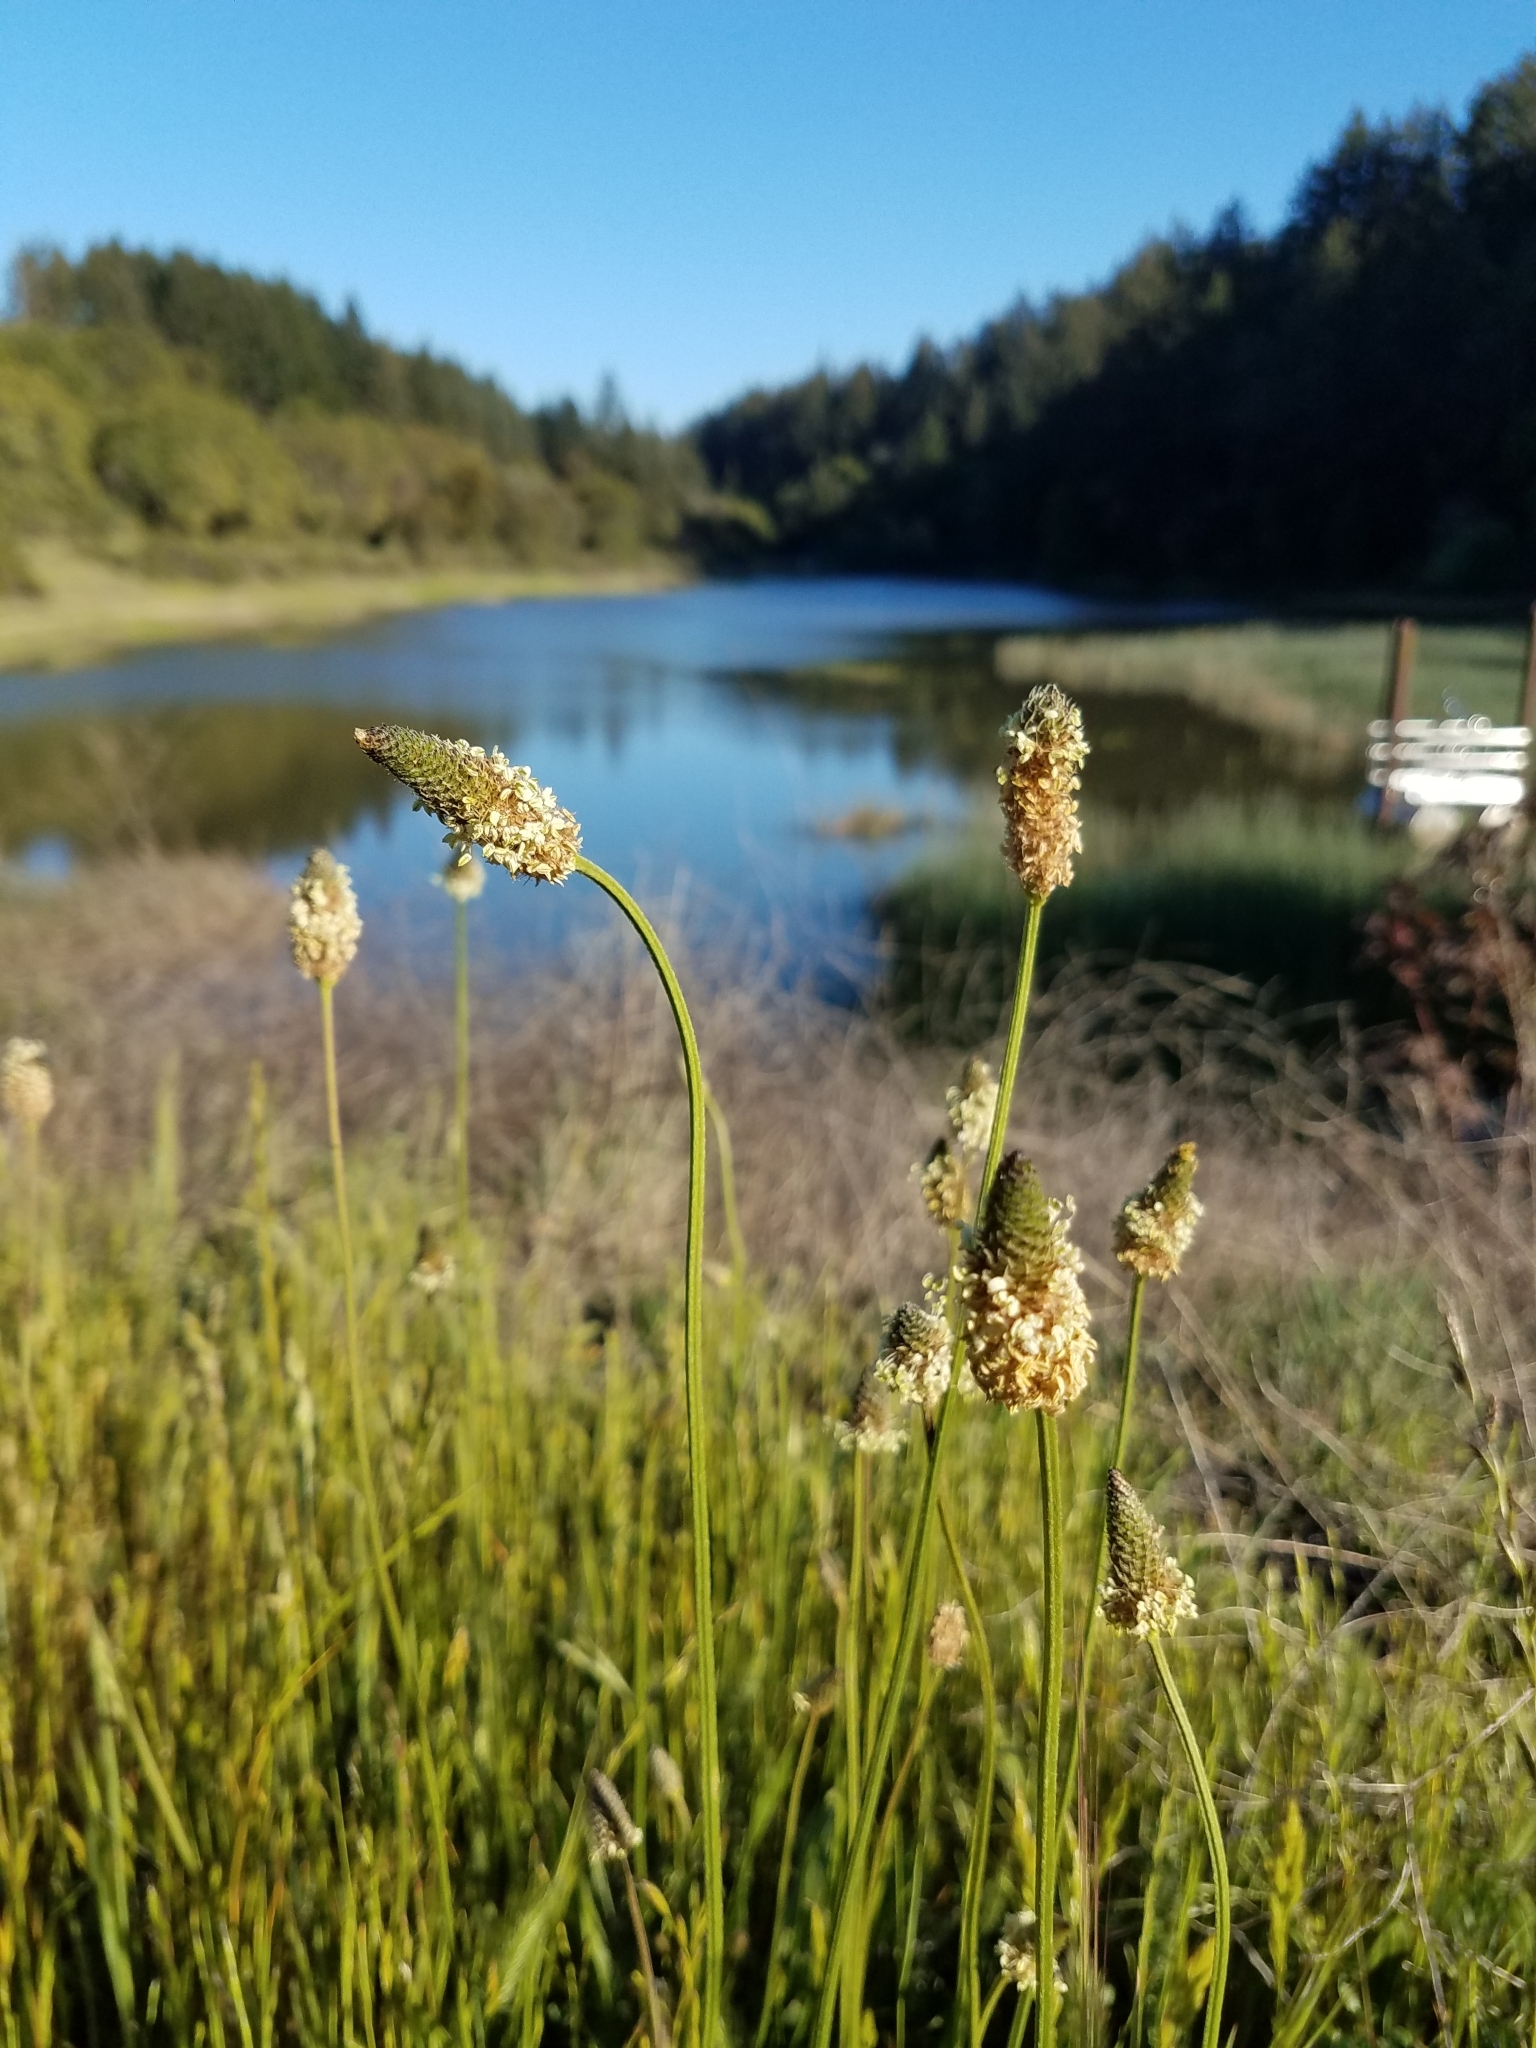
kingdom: Plantae
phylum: Tracheophyta
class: Magnoliopsida
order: Lamiales
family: Plantaginaceae
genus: Plantago
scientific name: Plantago lanceolata
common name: Ribwort plantain
